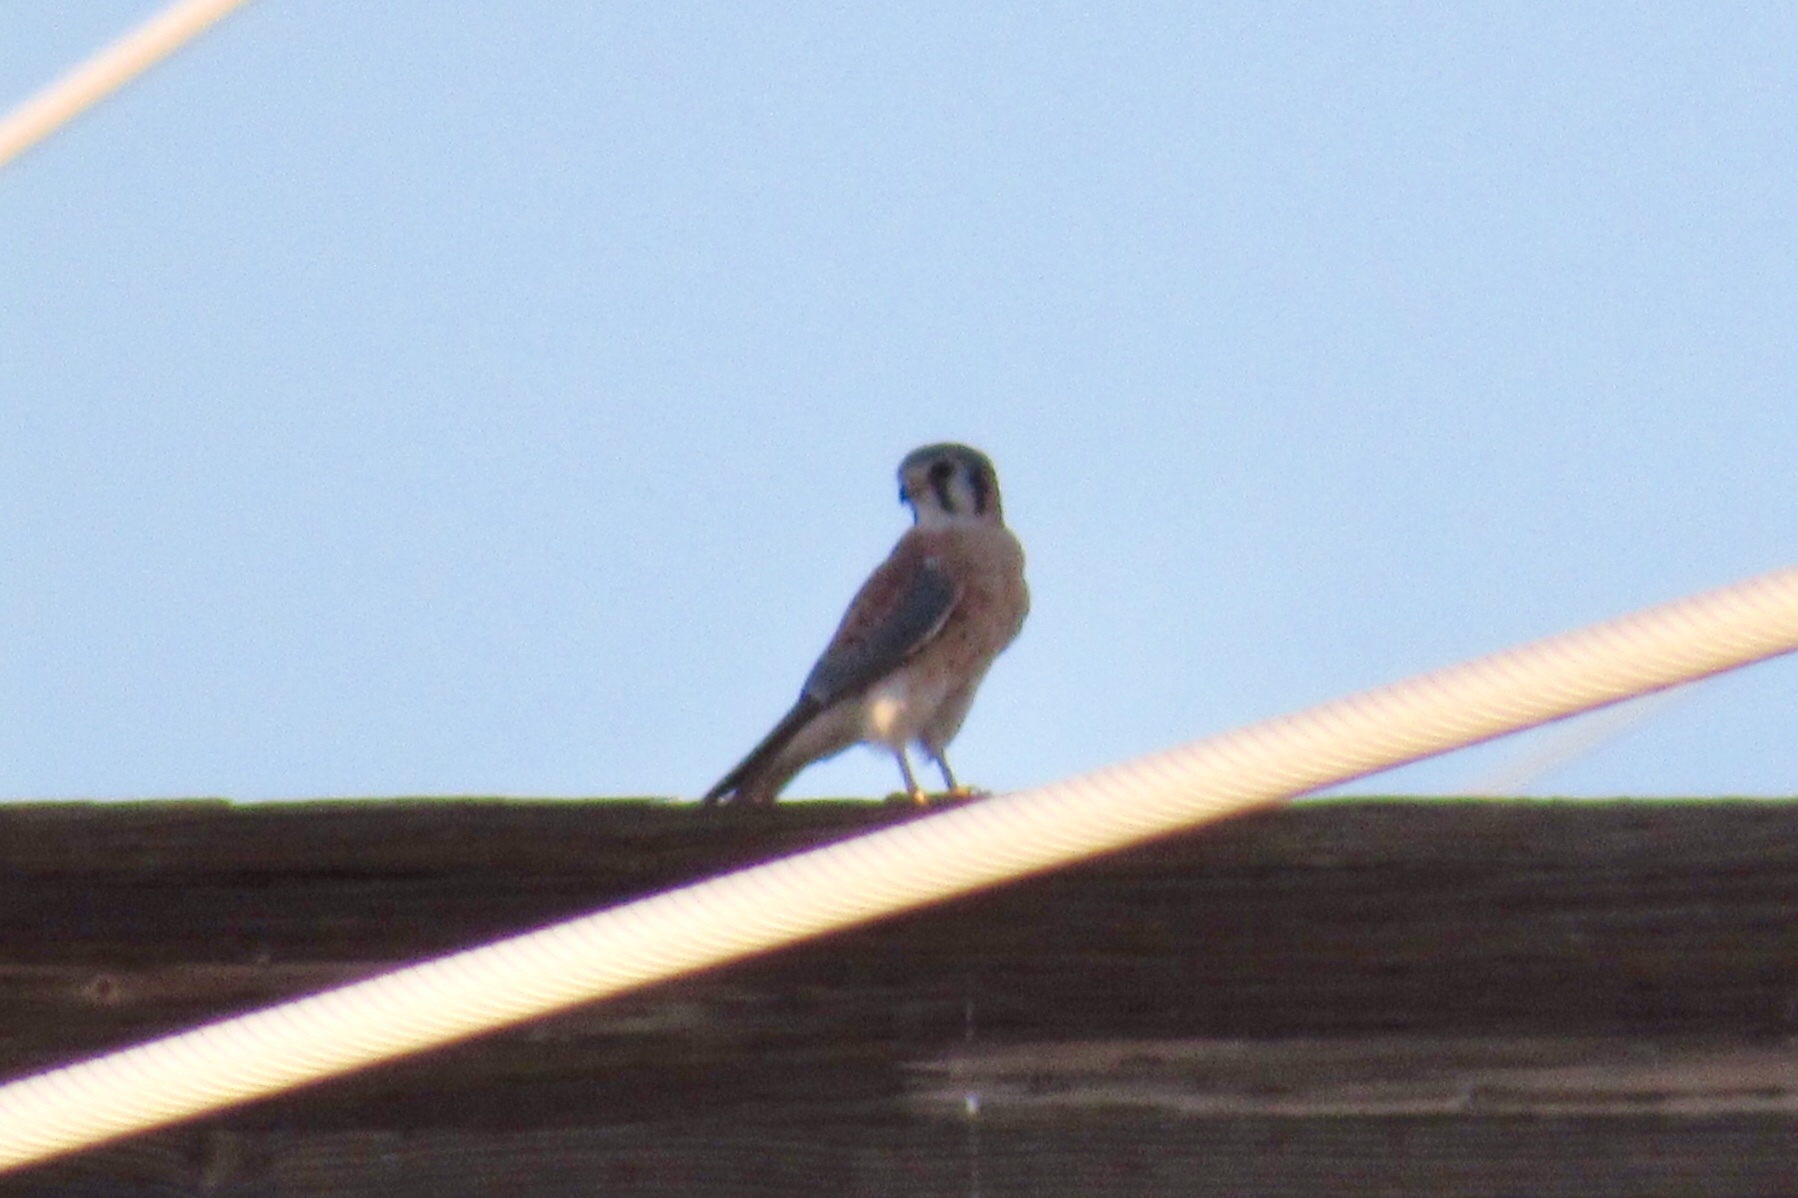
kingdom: Animalia
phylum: Chordata
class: Aves
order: Falconiformes
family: Falconidae
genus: Falco
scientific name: Falco sparverius
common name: American kestrel
